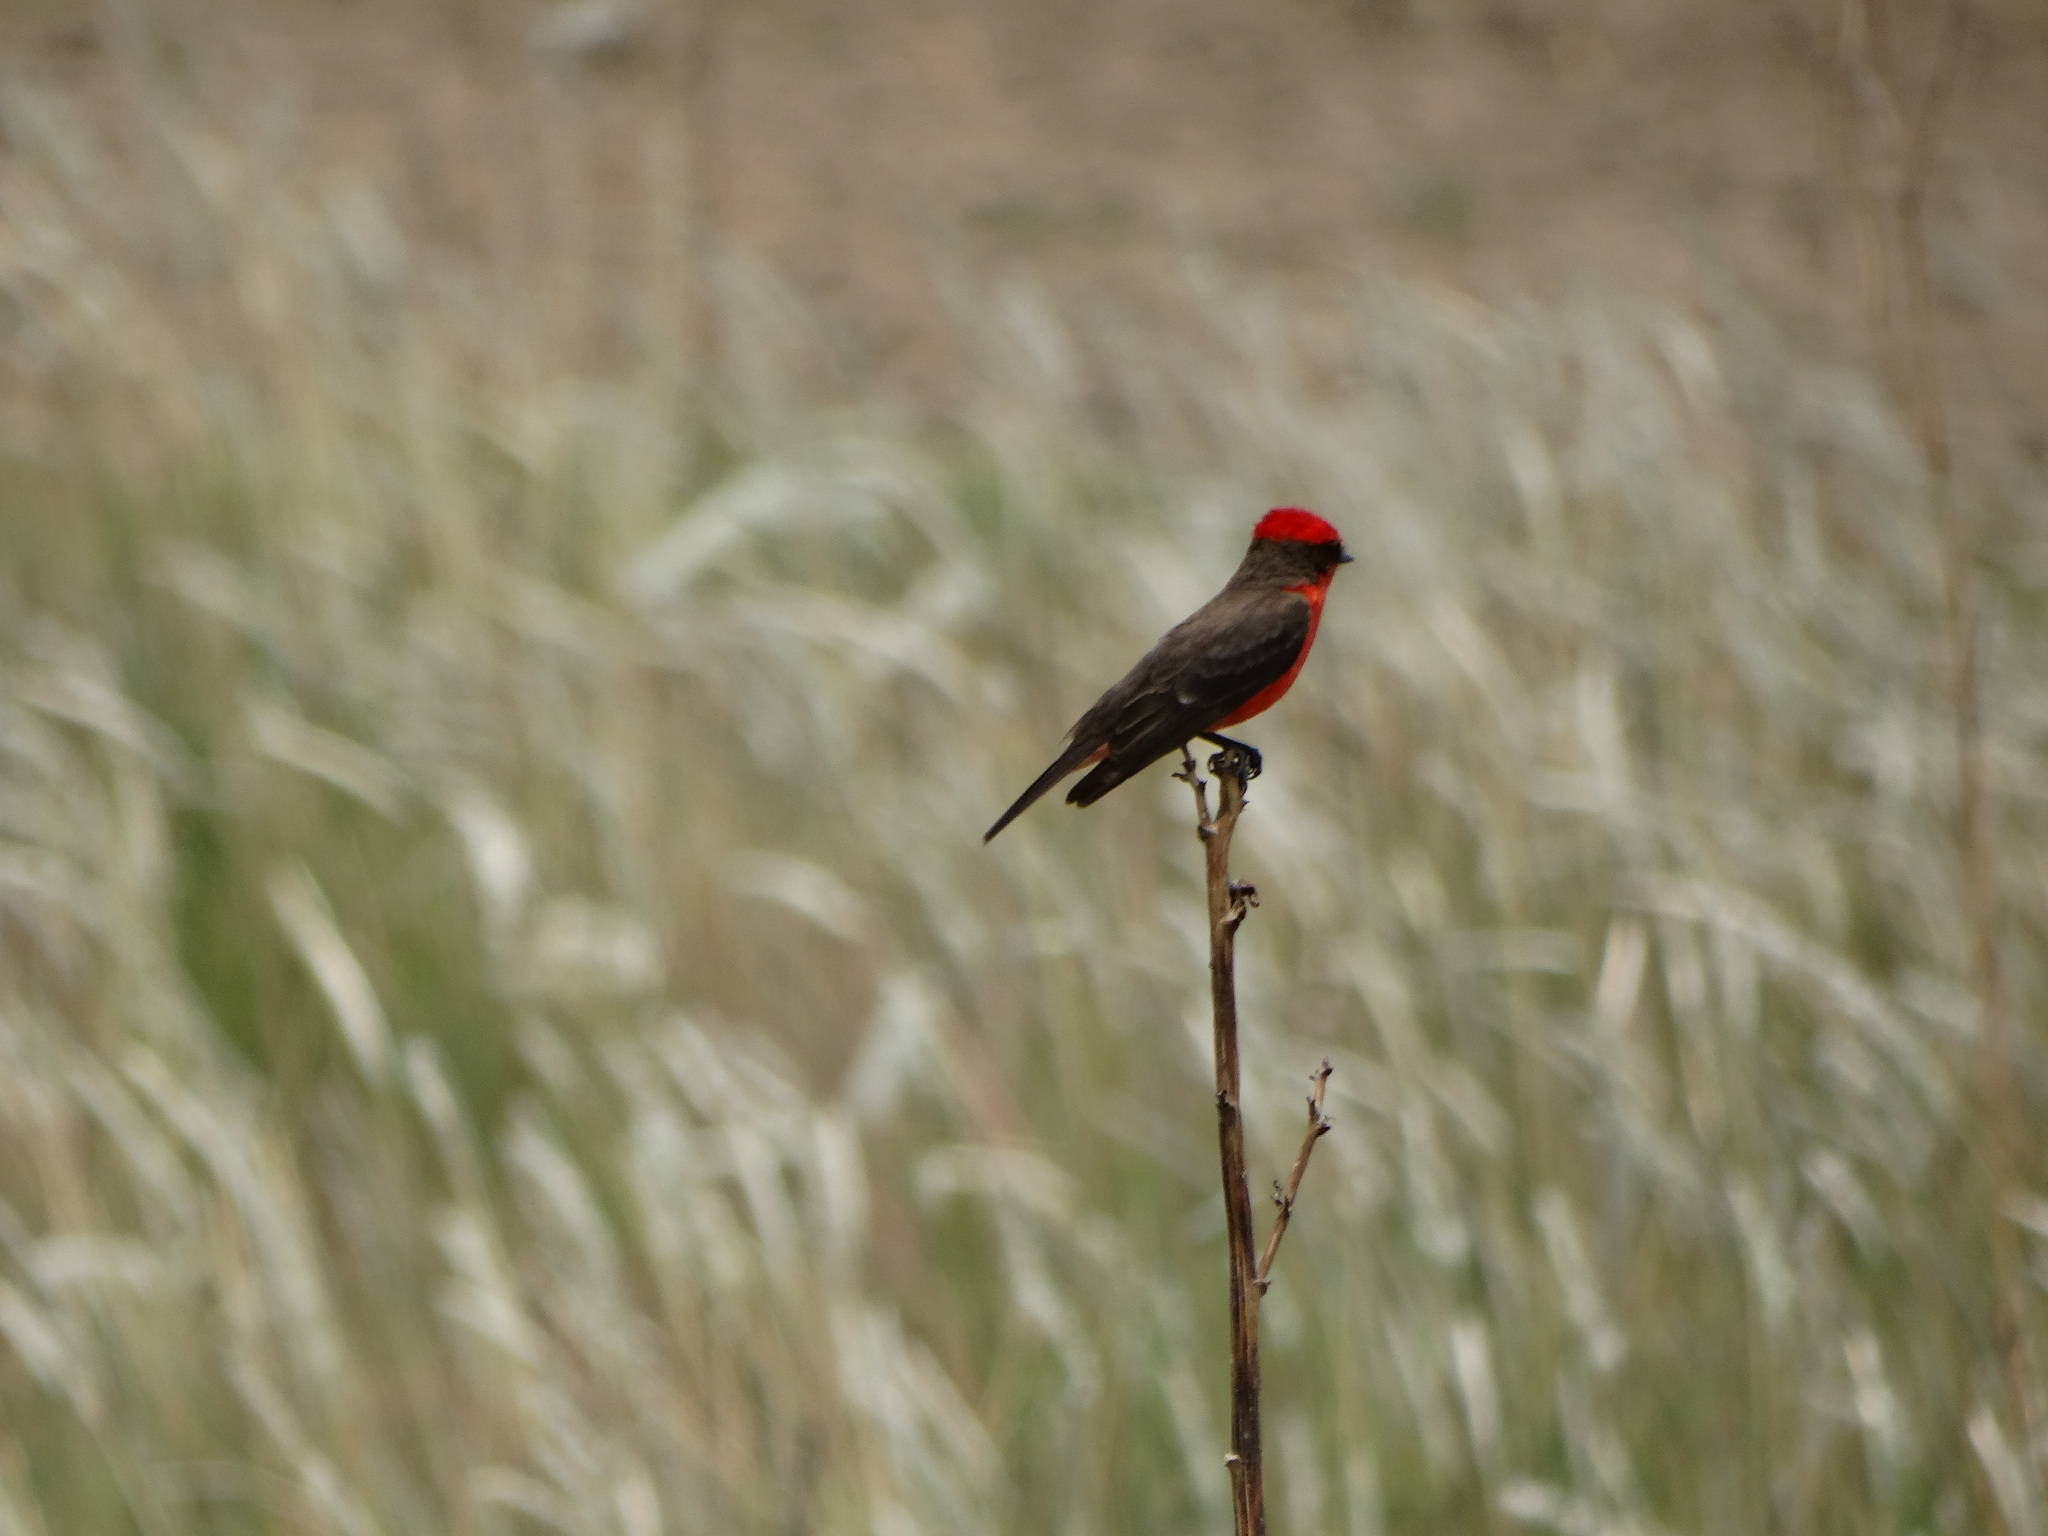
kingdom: Animalia
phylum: Chordata
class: Aves
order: Passeriformes
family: Tyrannidae
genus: Pyrocephalus
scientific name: Pyrocephalus rubinus
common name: Vermilion flycatcher
